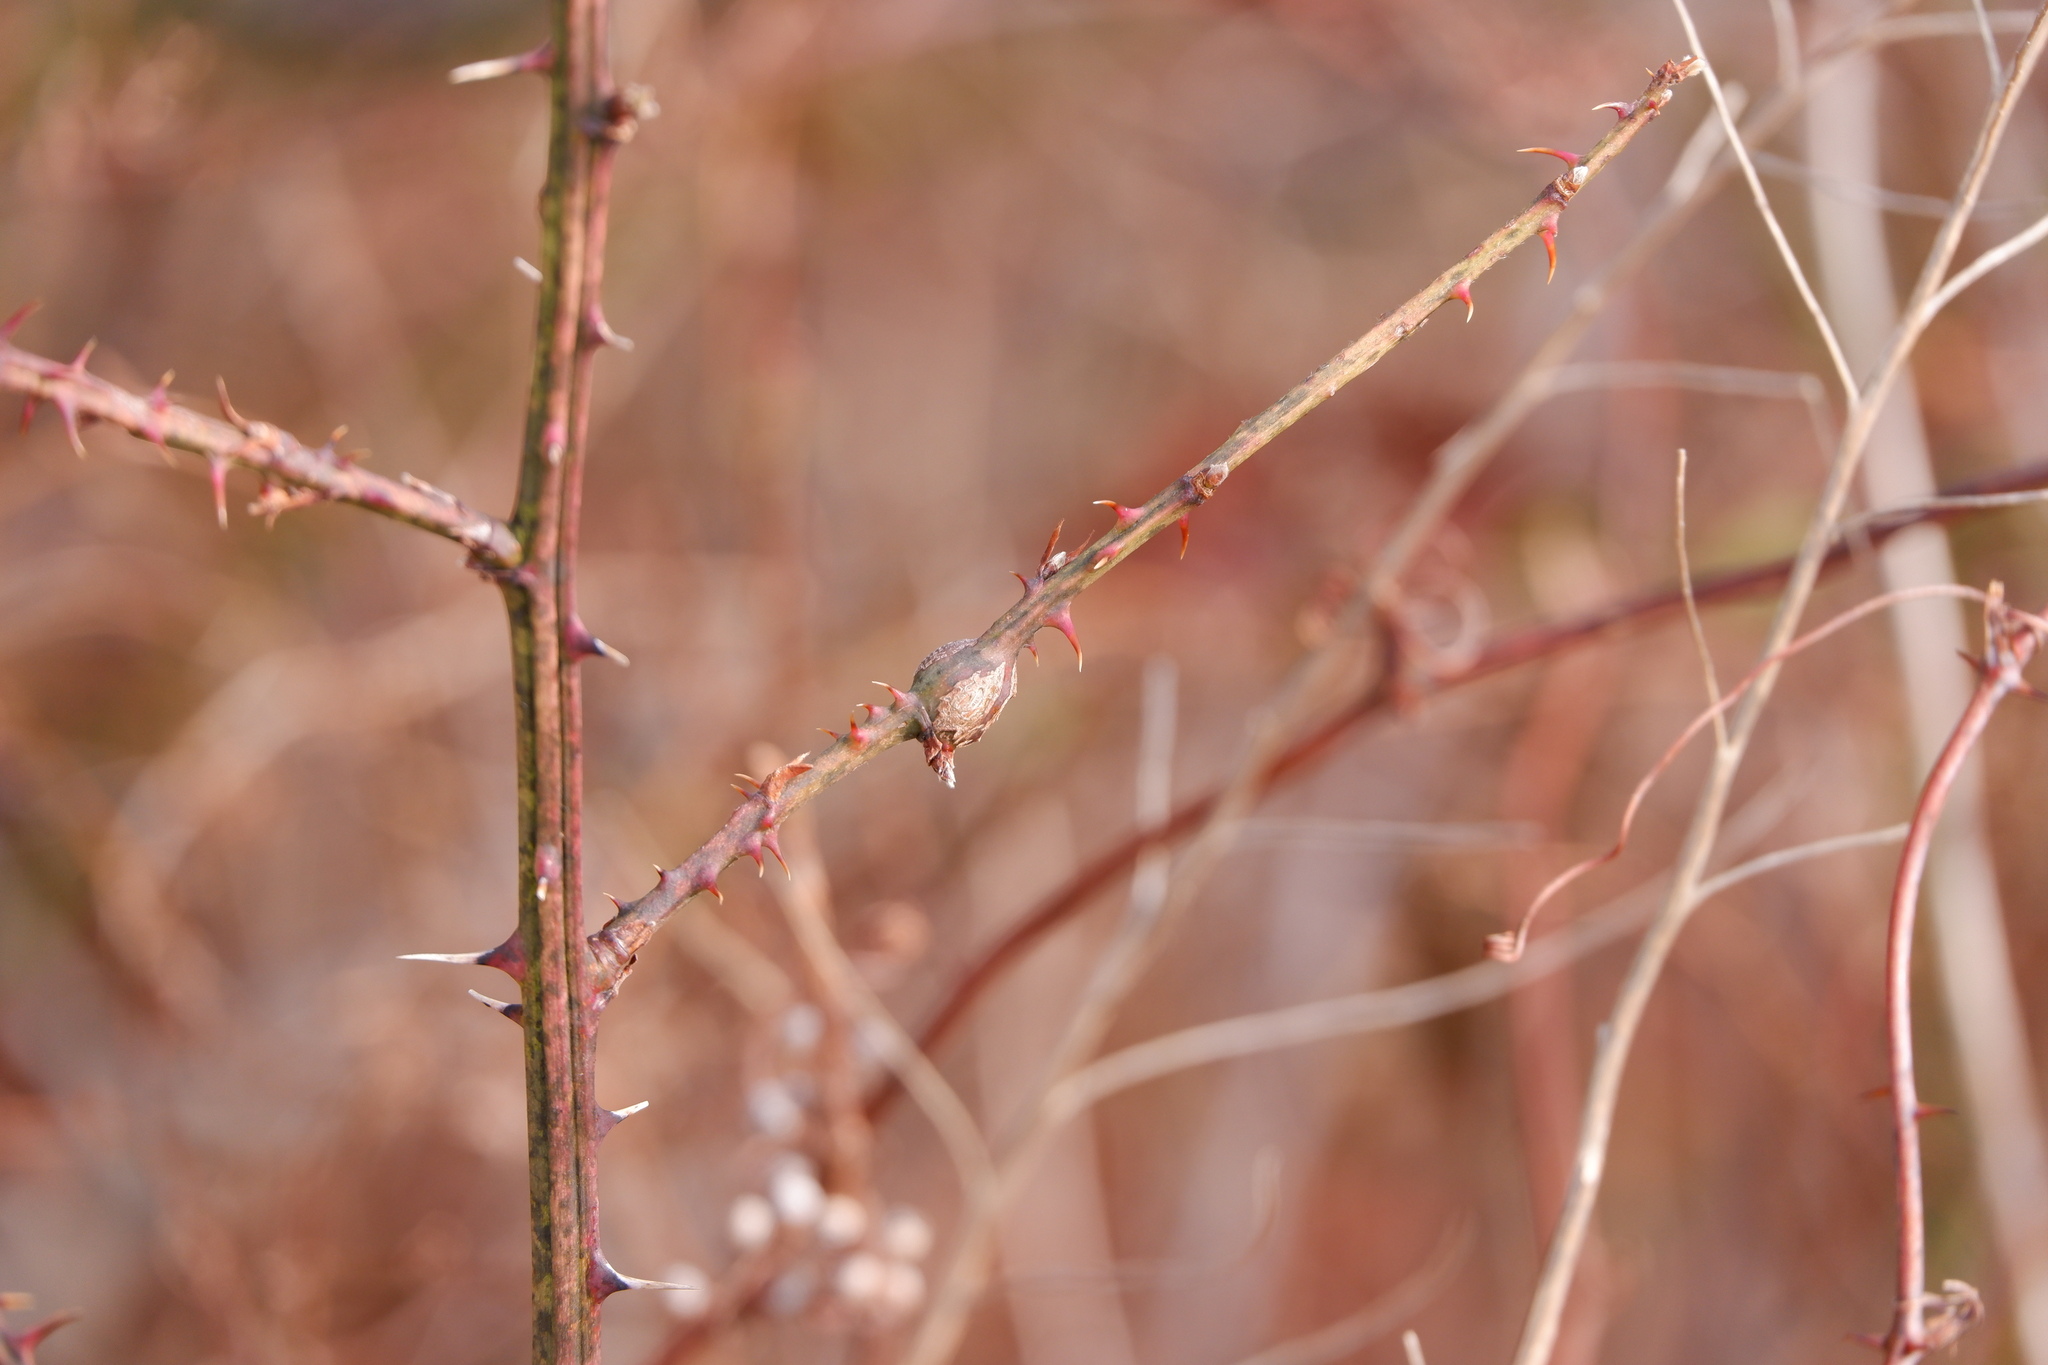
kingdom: Animalia
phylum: Arthropoda
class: Insecta
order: Diptera
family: Cecidomyiidae
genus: Neolasioptera
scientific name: Neolasioptera nodulosa
